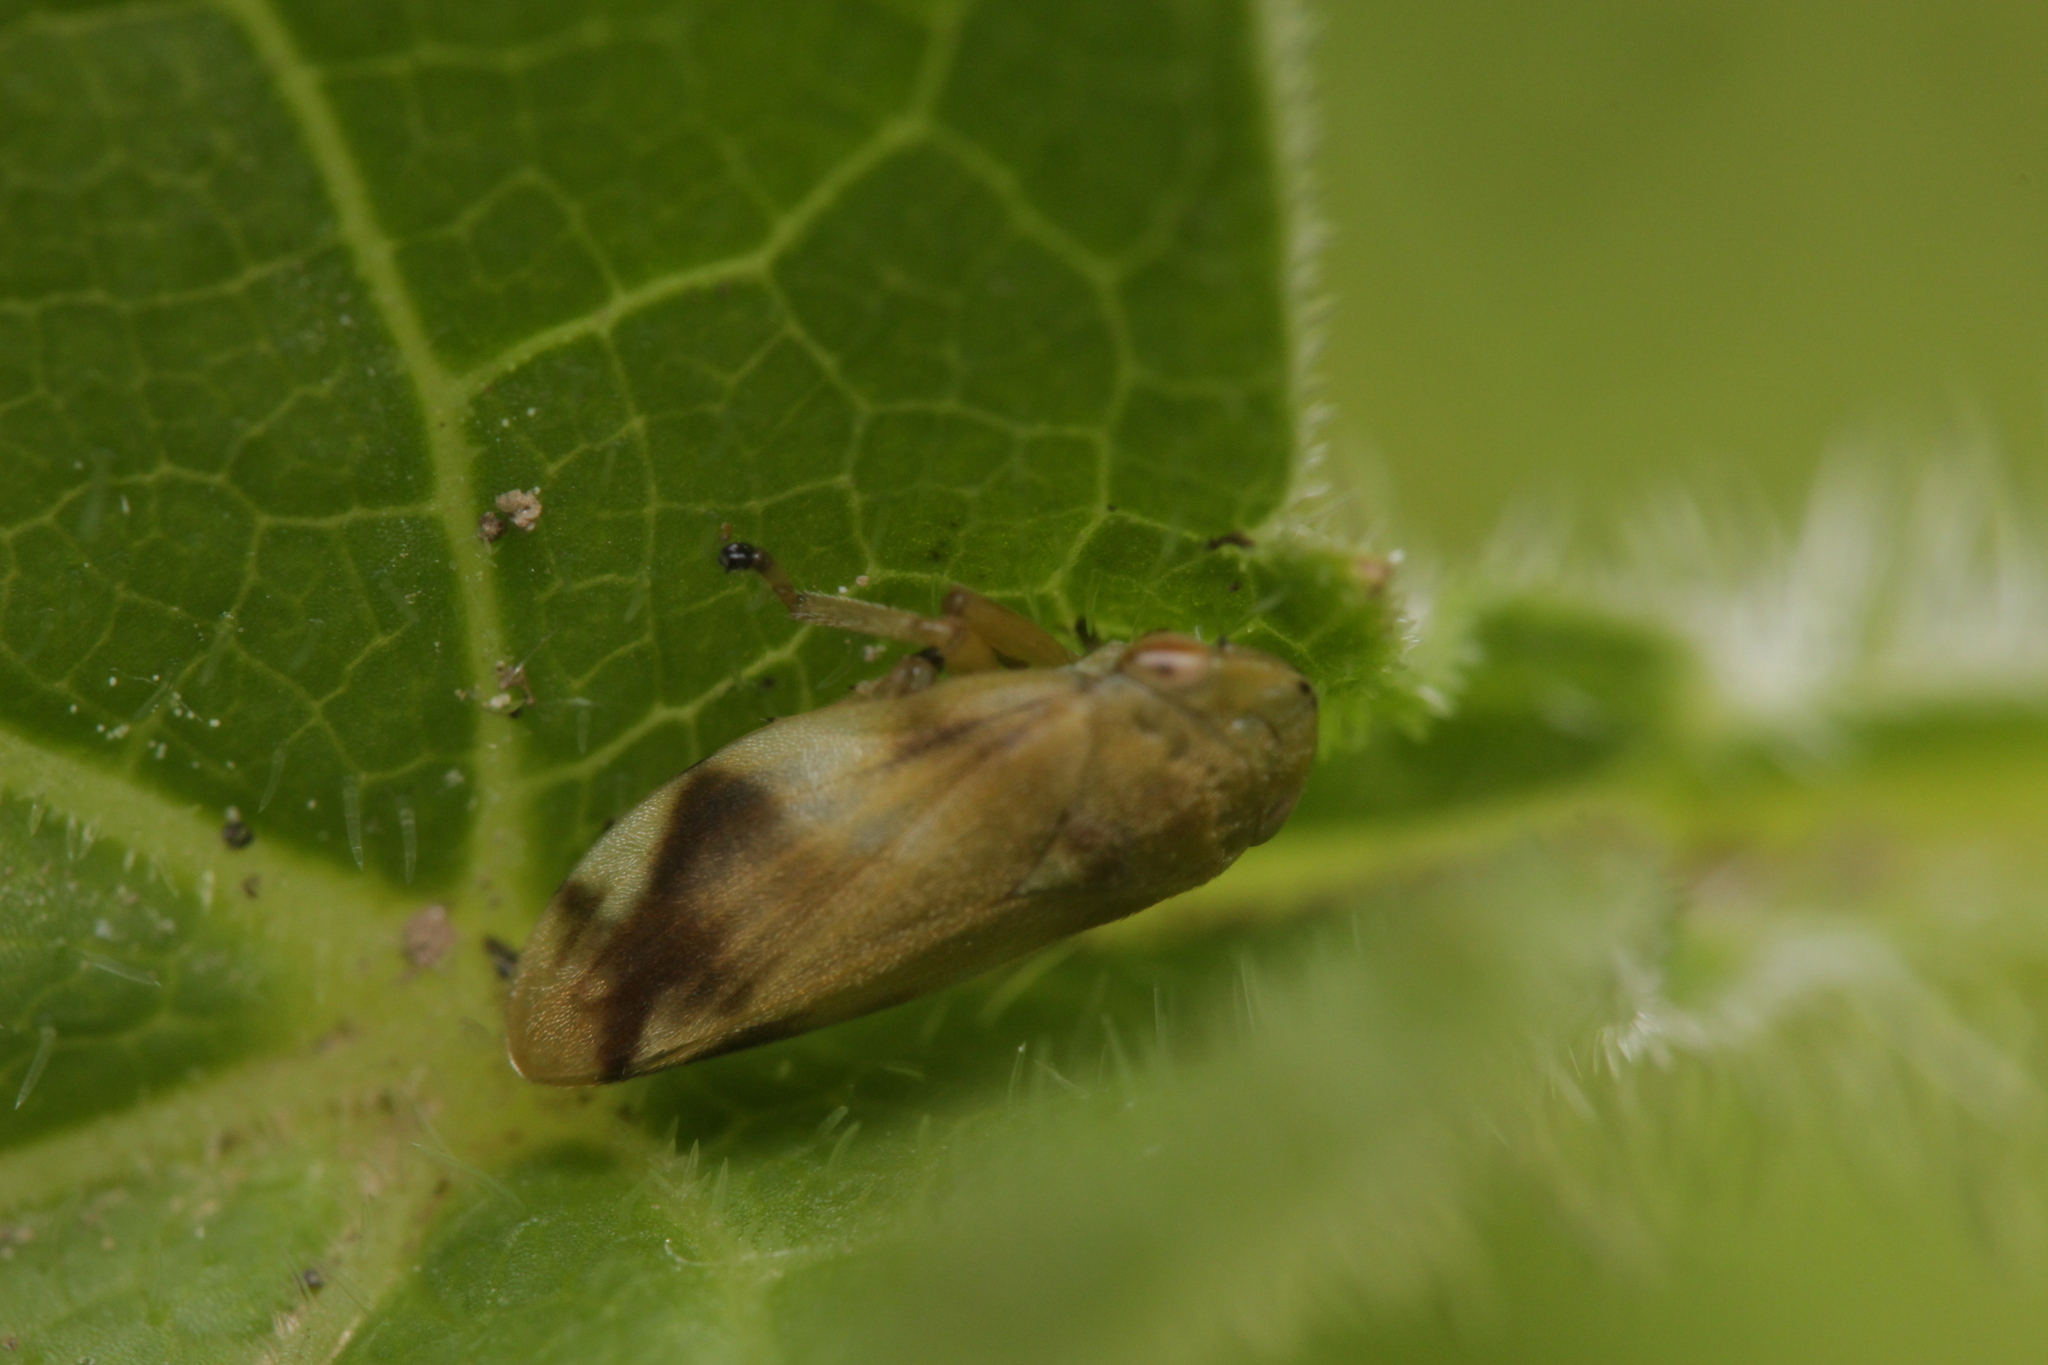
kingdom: Animalia
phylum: Arthropoda
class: Insecta
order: Hemiptera
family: Aphrophoridae
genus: Philaenus
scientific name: Philaenus spumarius
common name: Meadow spittlebug
